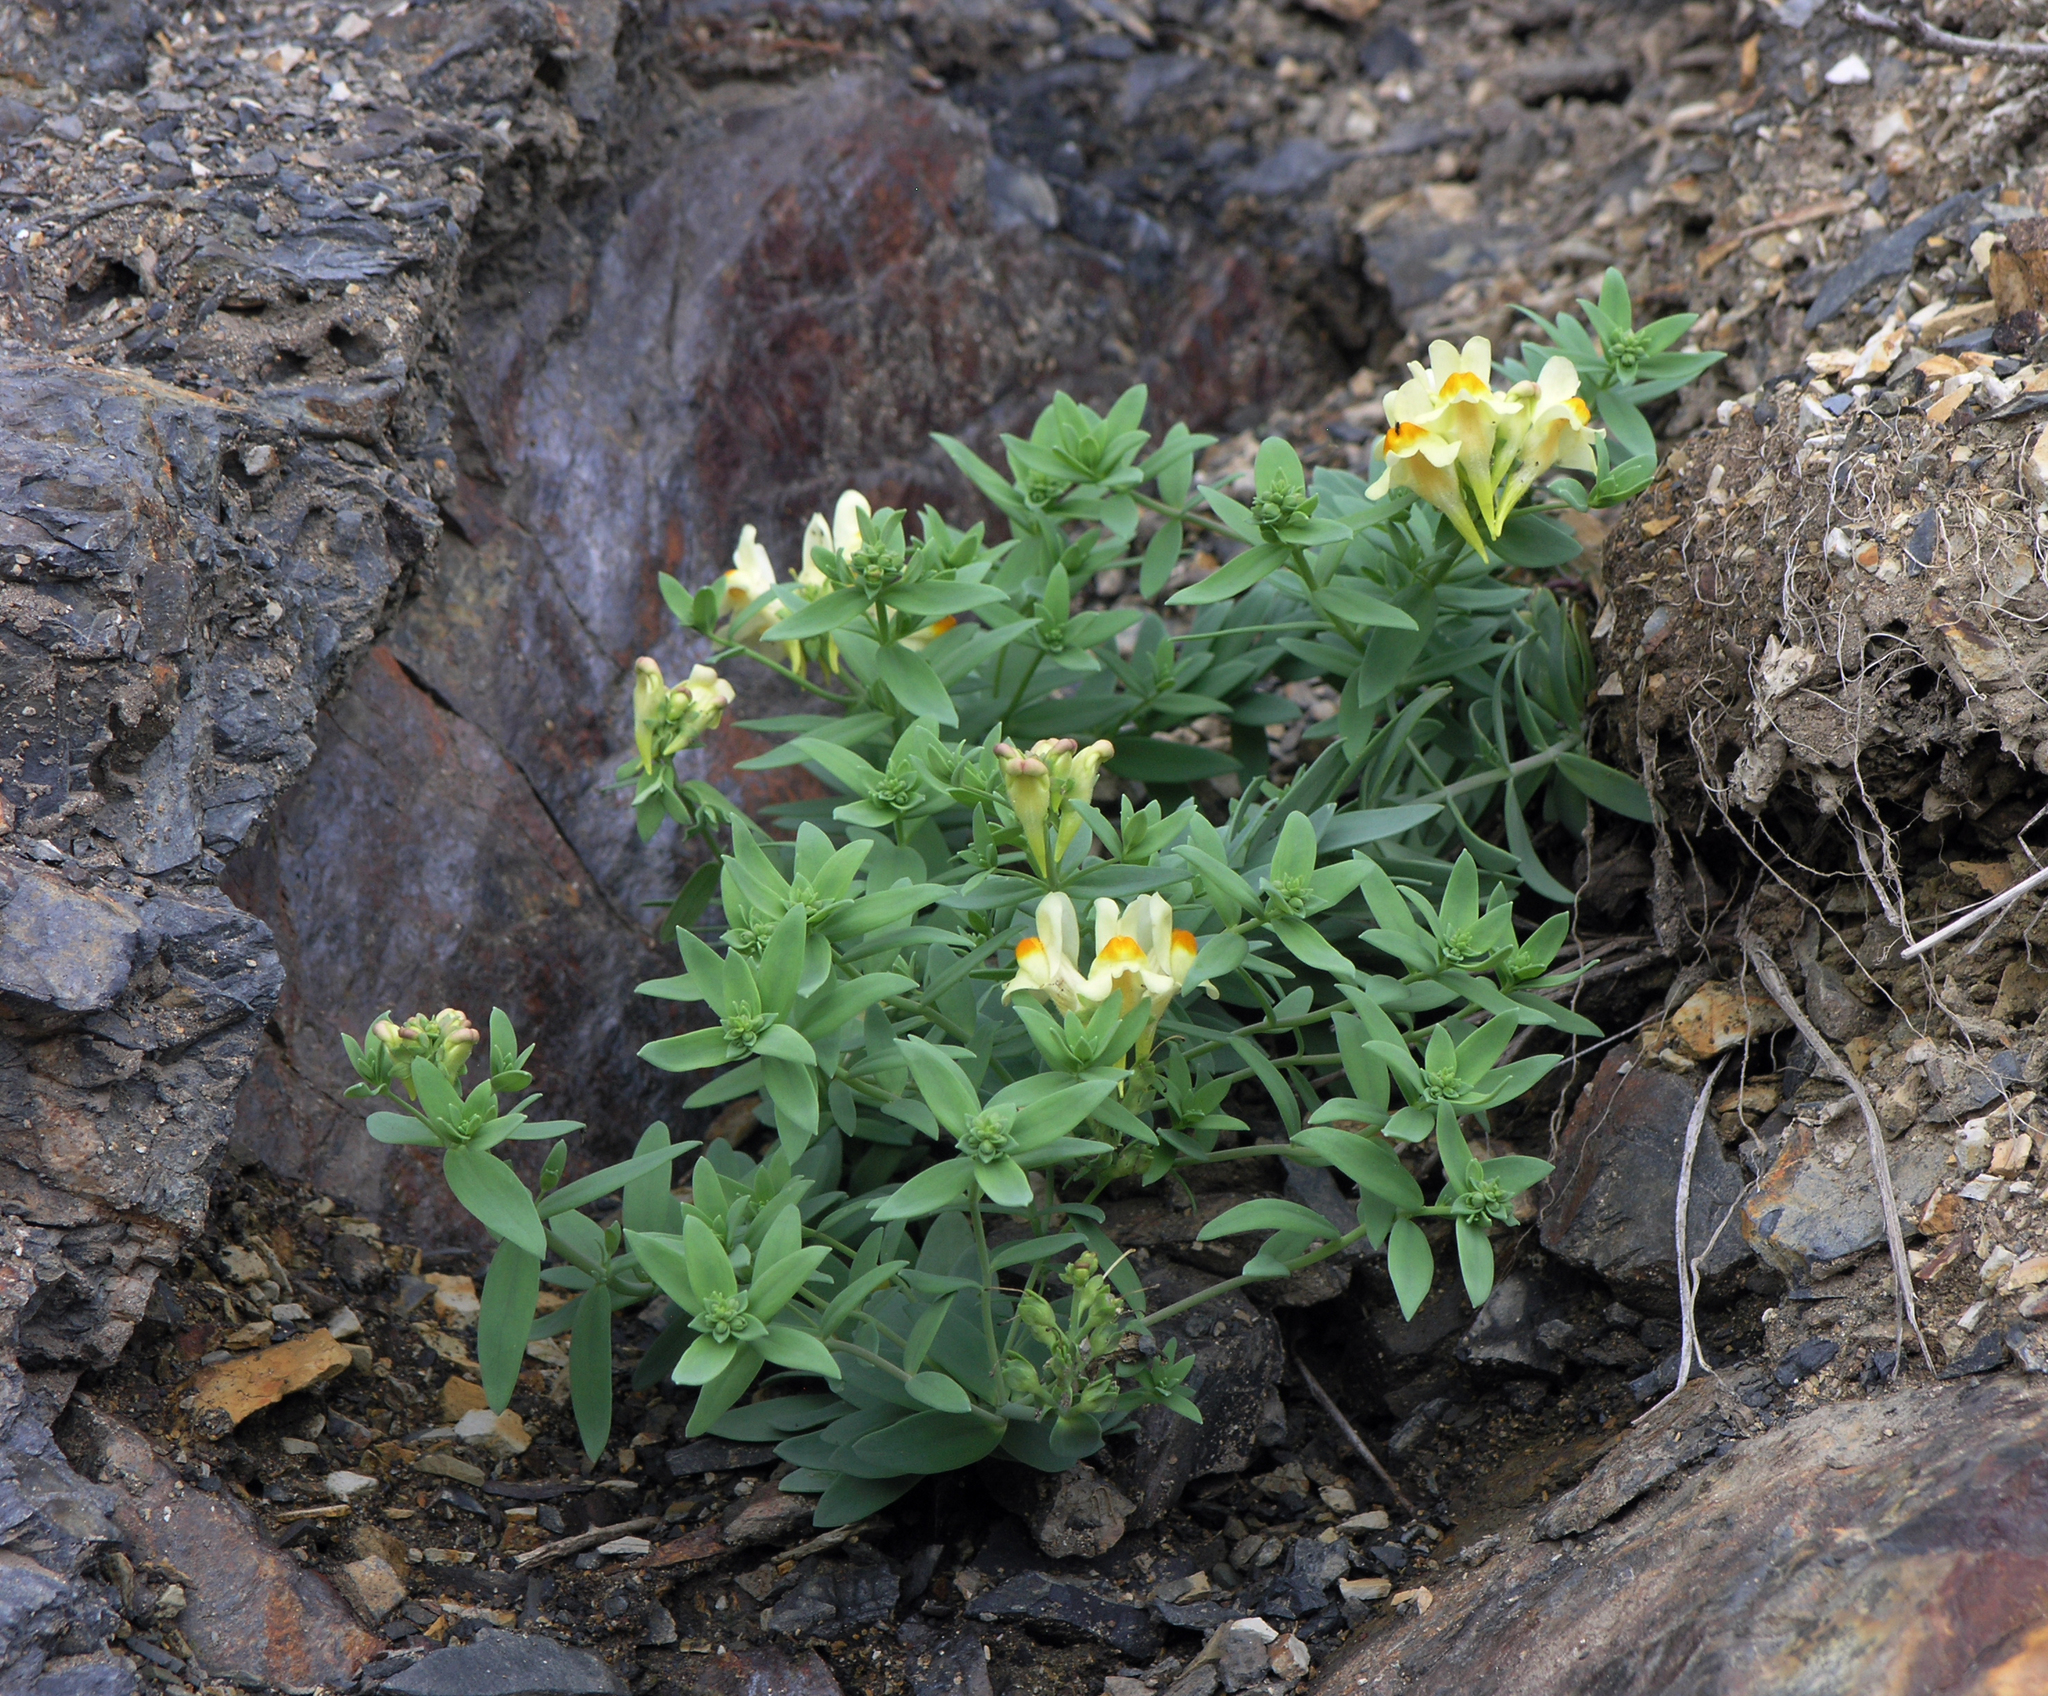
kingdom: Plantae
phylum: Tracheophyta
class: Magnoliopsida
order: Lamiales
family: Plantaginaceae
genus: Linaria
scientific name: Linaria japonica
